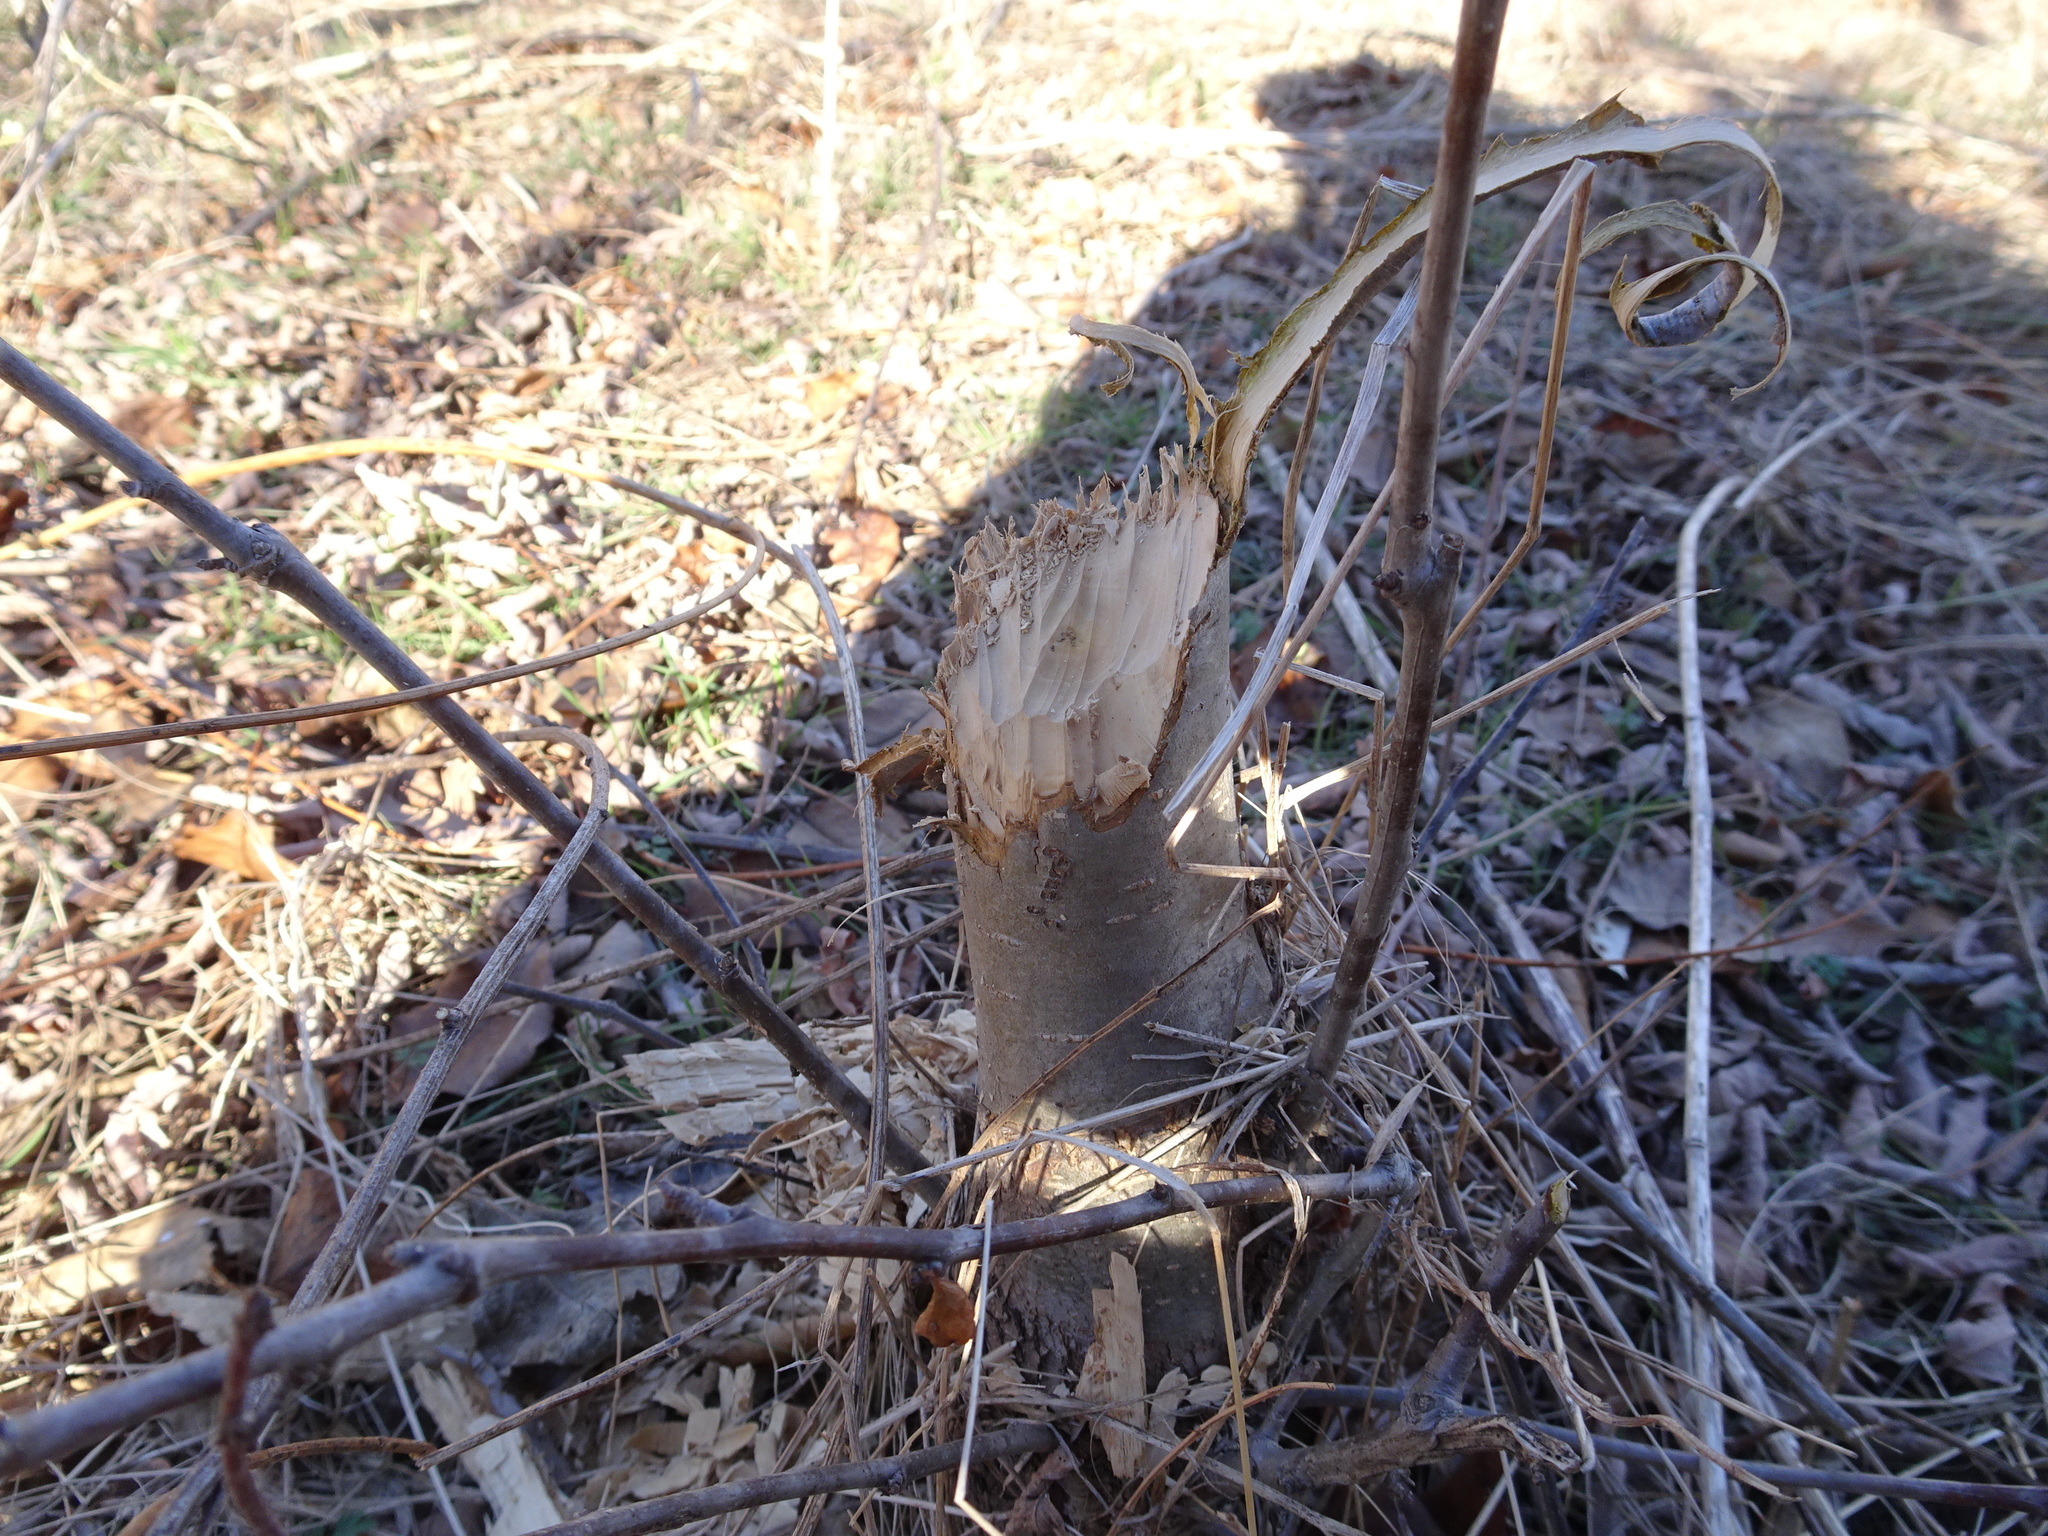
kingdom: Animalia
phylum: Chordata
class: Mammalia
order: Rodentia
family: Castoridae
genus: Castor
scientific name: Castor canadensis
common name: American beaver
